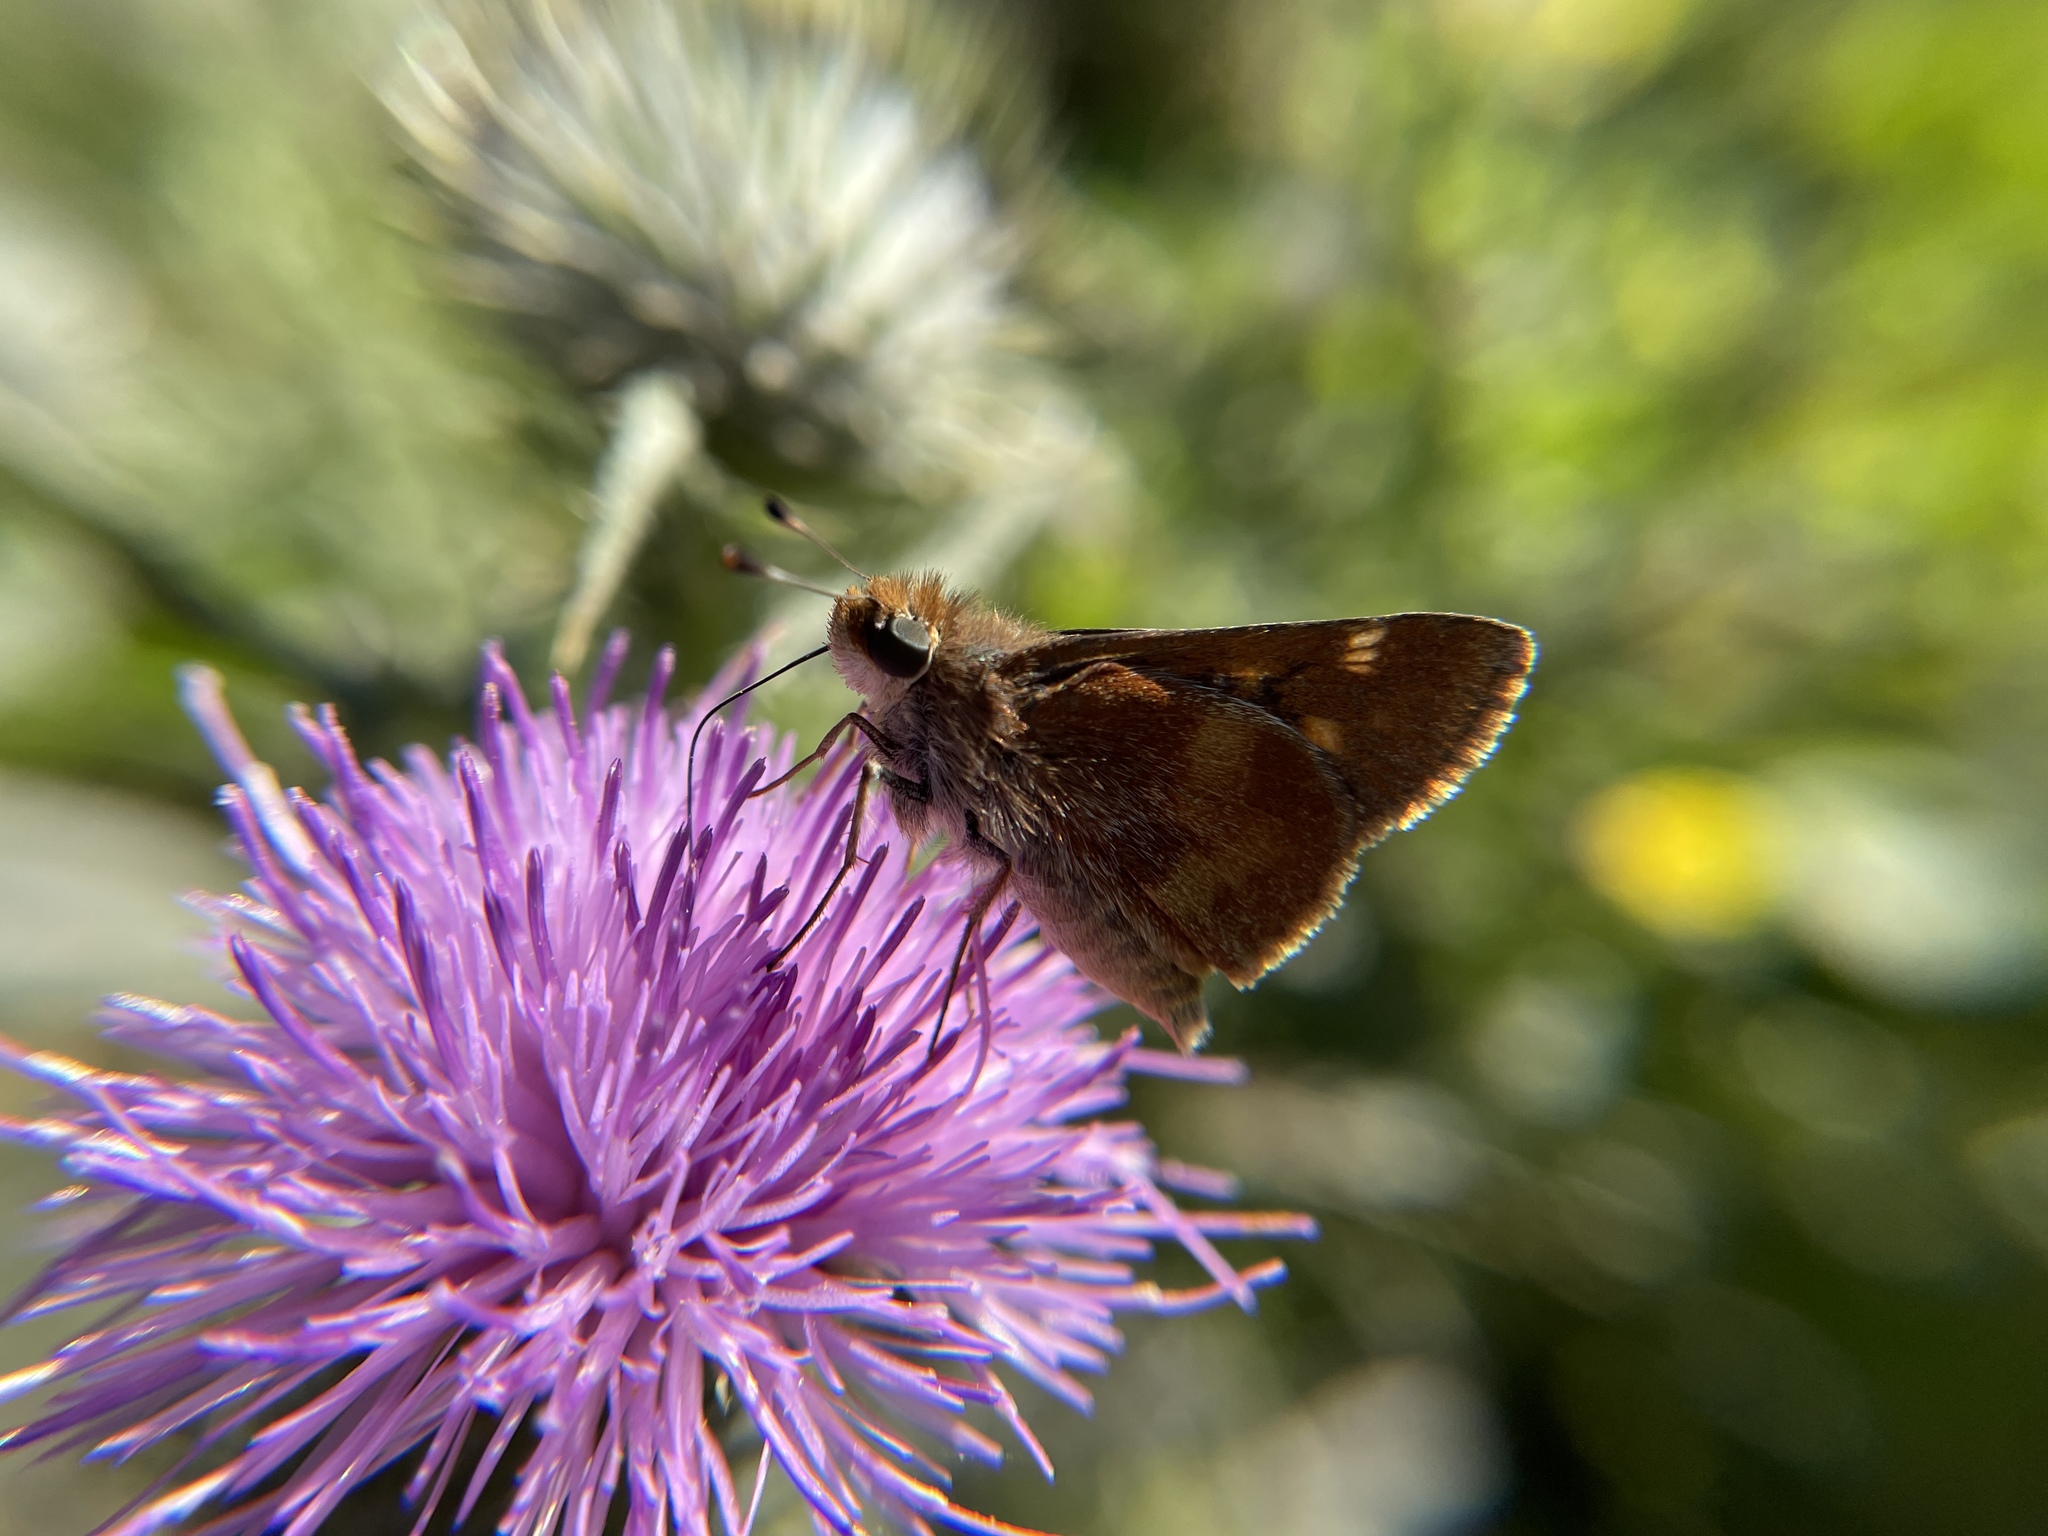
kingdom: Animalia
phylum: Arthropoda
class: Insecta
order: Lepidoptera
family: Hesperiidae
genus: Lon
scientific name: Lon melane
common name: Umber skipper
